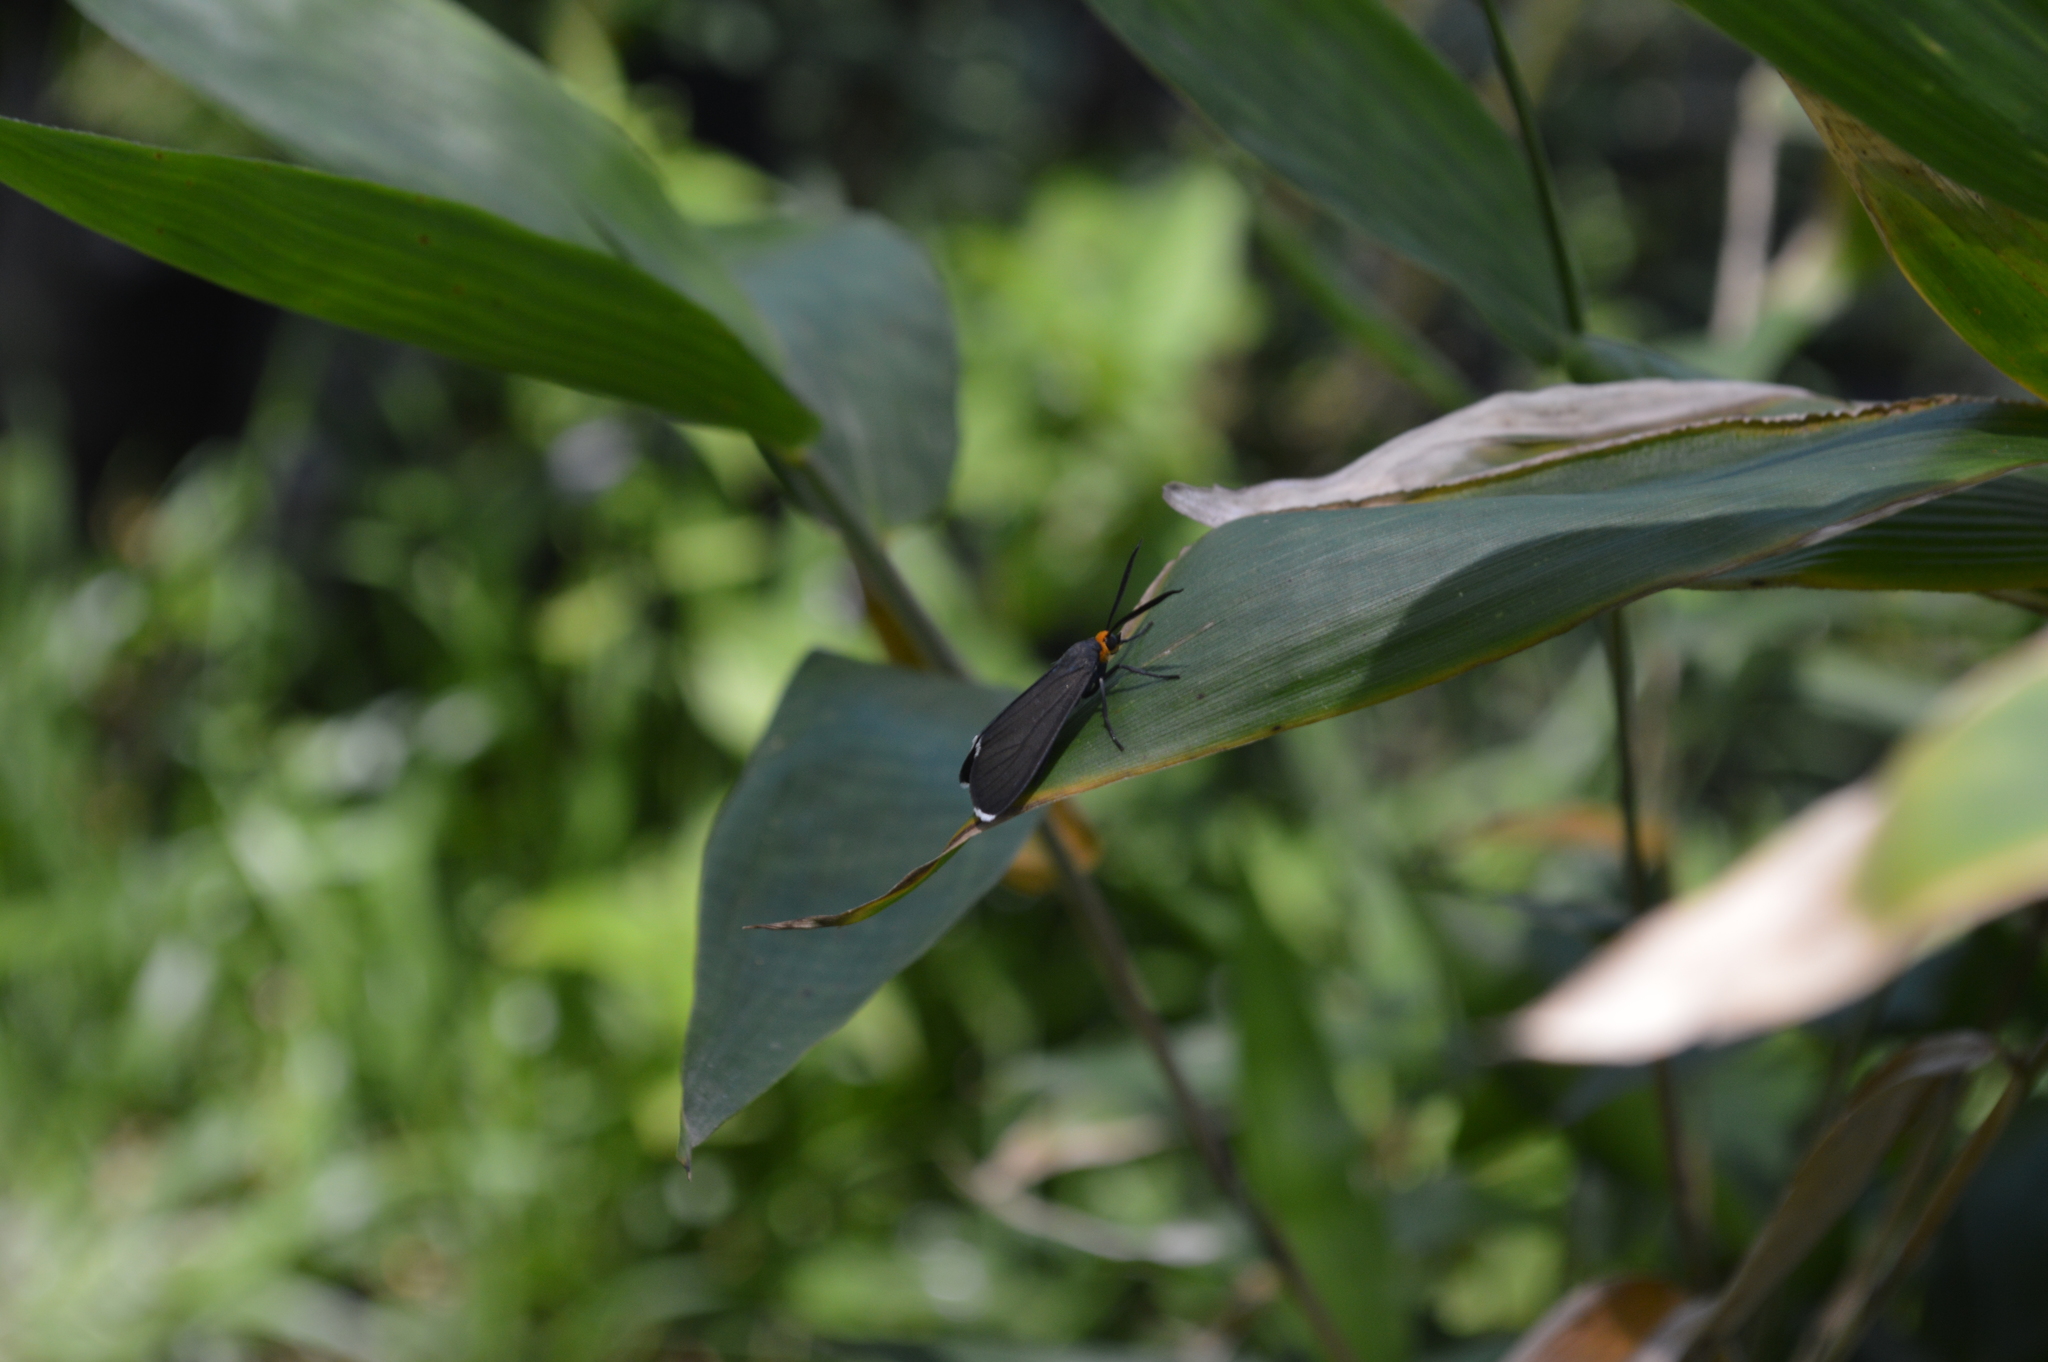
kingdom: Animalia
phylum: Arthropoda
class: Insecta
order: Lepidoptera
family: Erebidae
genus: Ctenucha
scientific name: Ctenucha rubriceps
